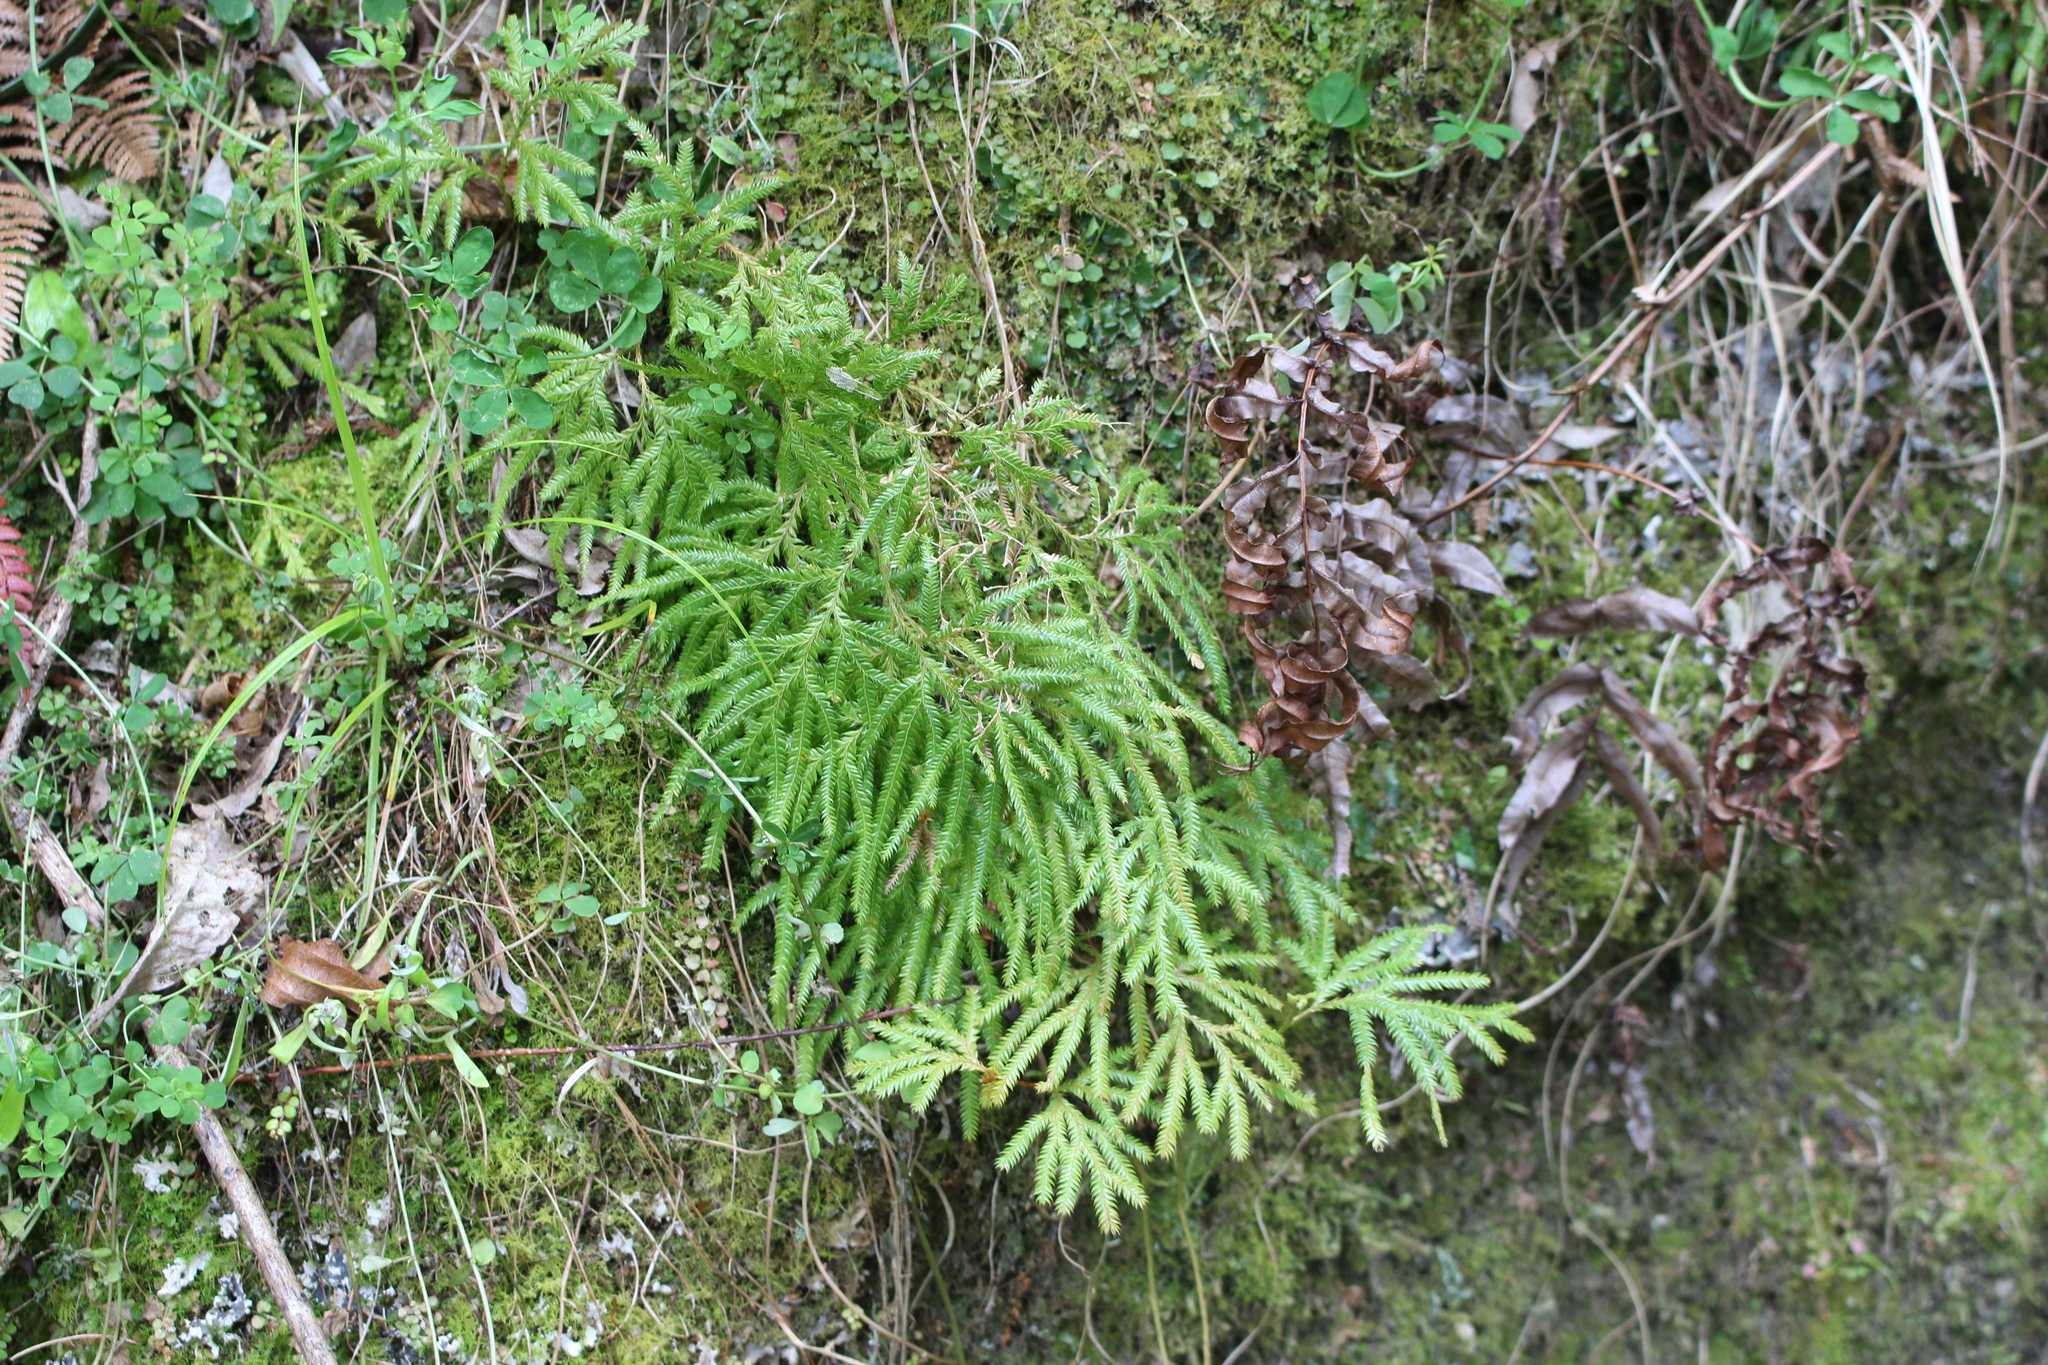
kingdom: Plantae
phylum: Tracheophyta
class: Lycopodiopsida
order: Lycopodiales
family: Lycopodiaceae
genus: Lycopodium
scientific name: Lycopodium volubile
